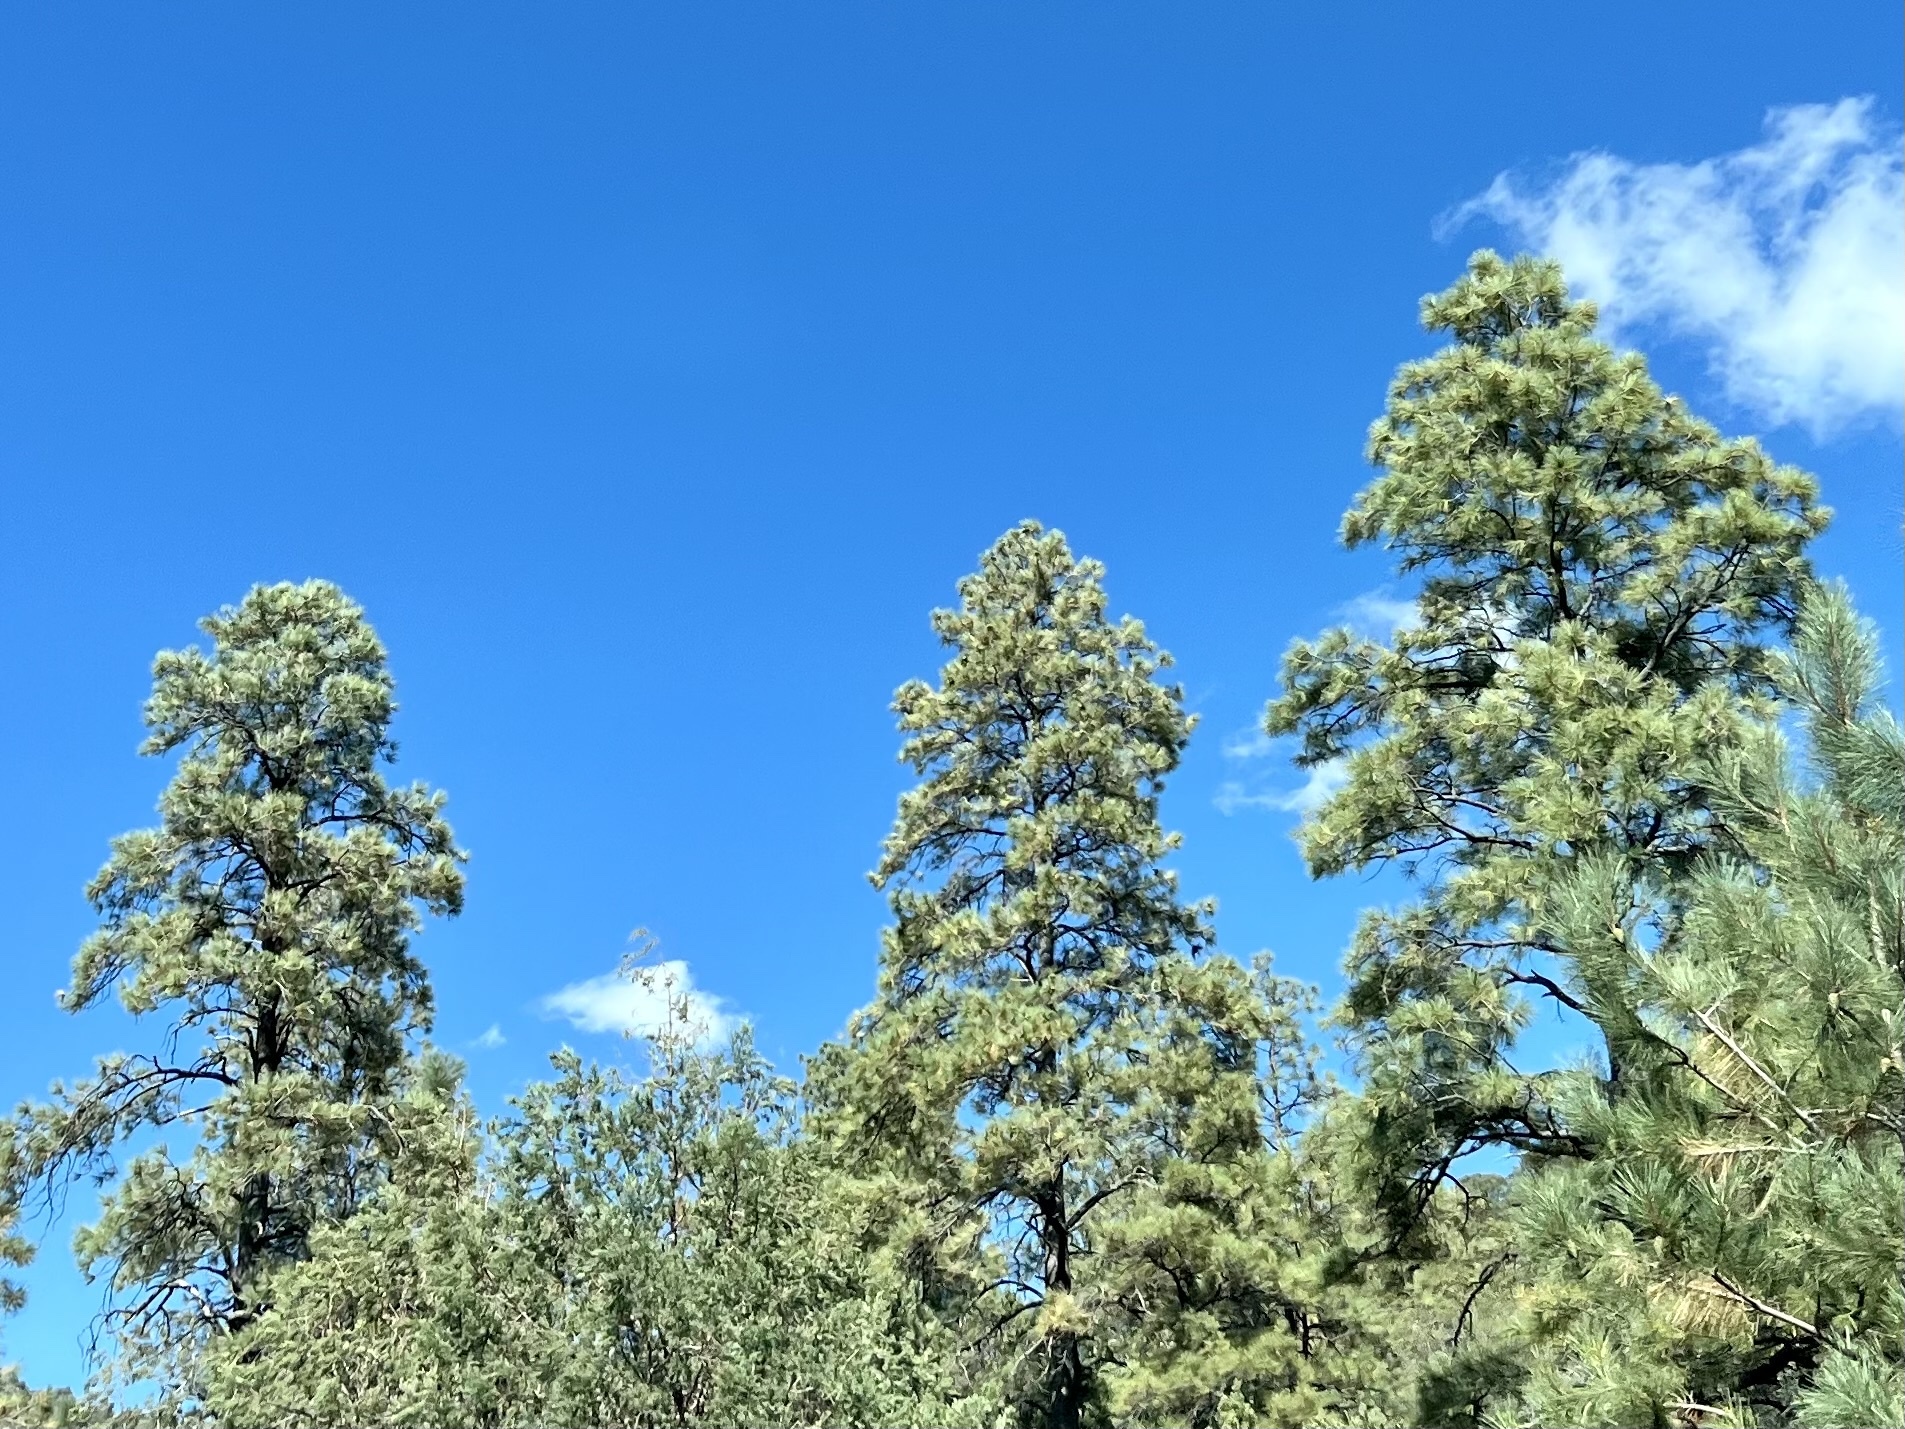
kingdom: Plantae
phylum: Tracheophyta
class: Pinopsida
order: Pinales
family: Pinaceae
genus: Pinus
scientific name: Pinus ponderosa
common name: Western yellow-pine
